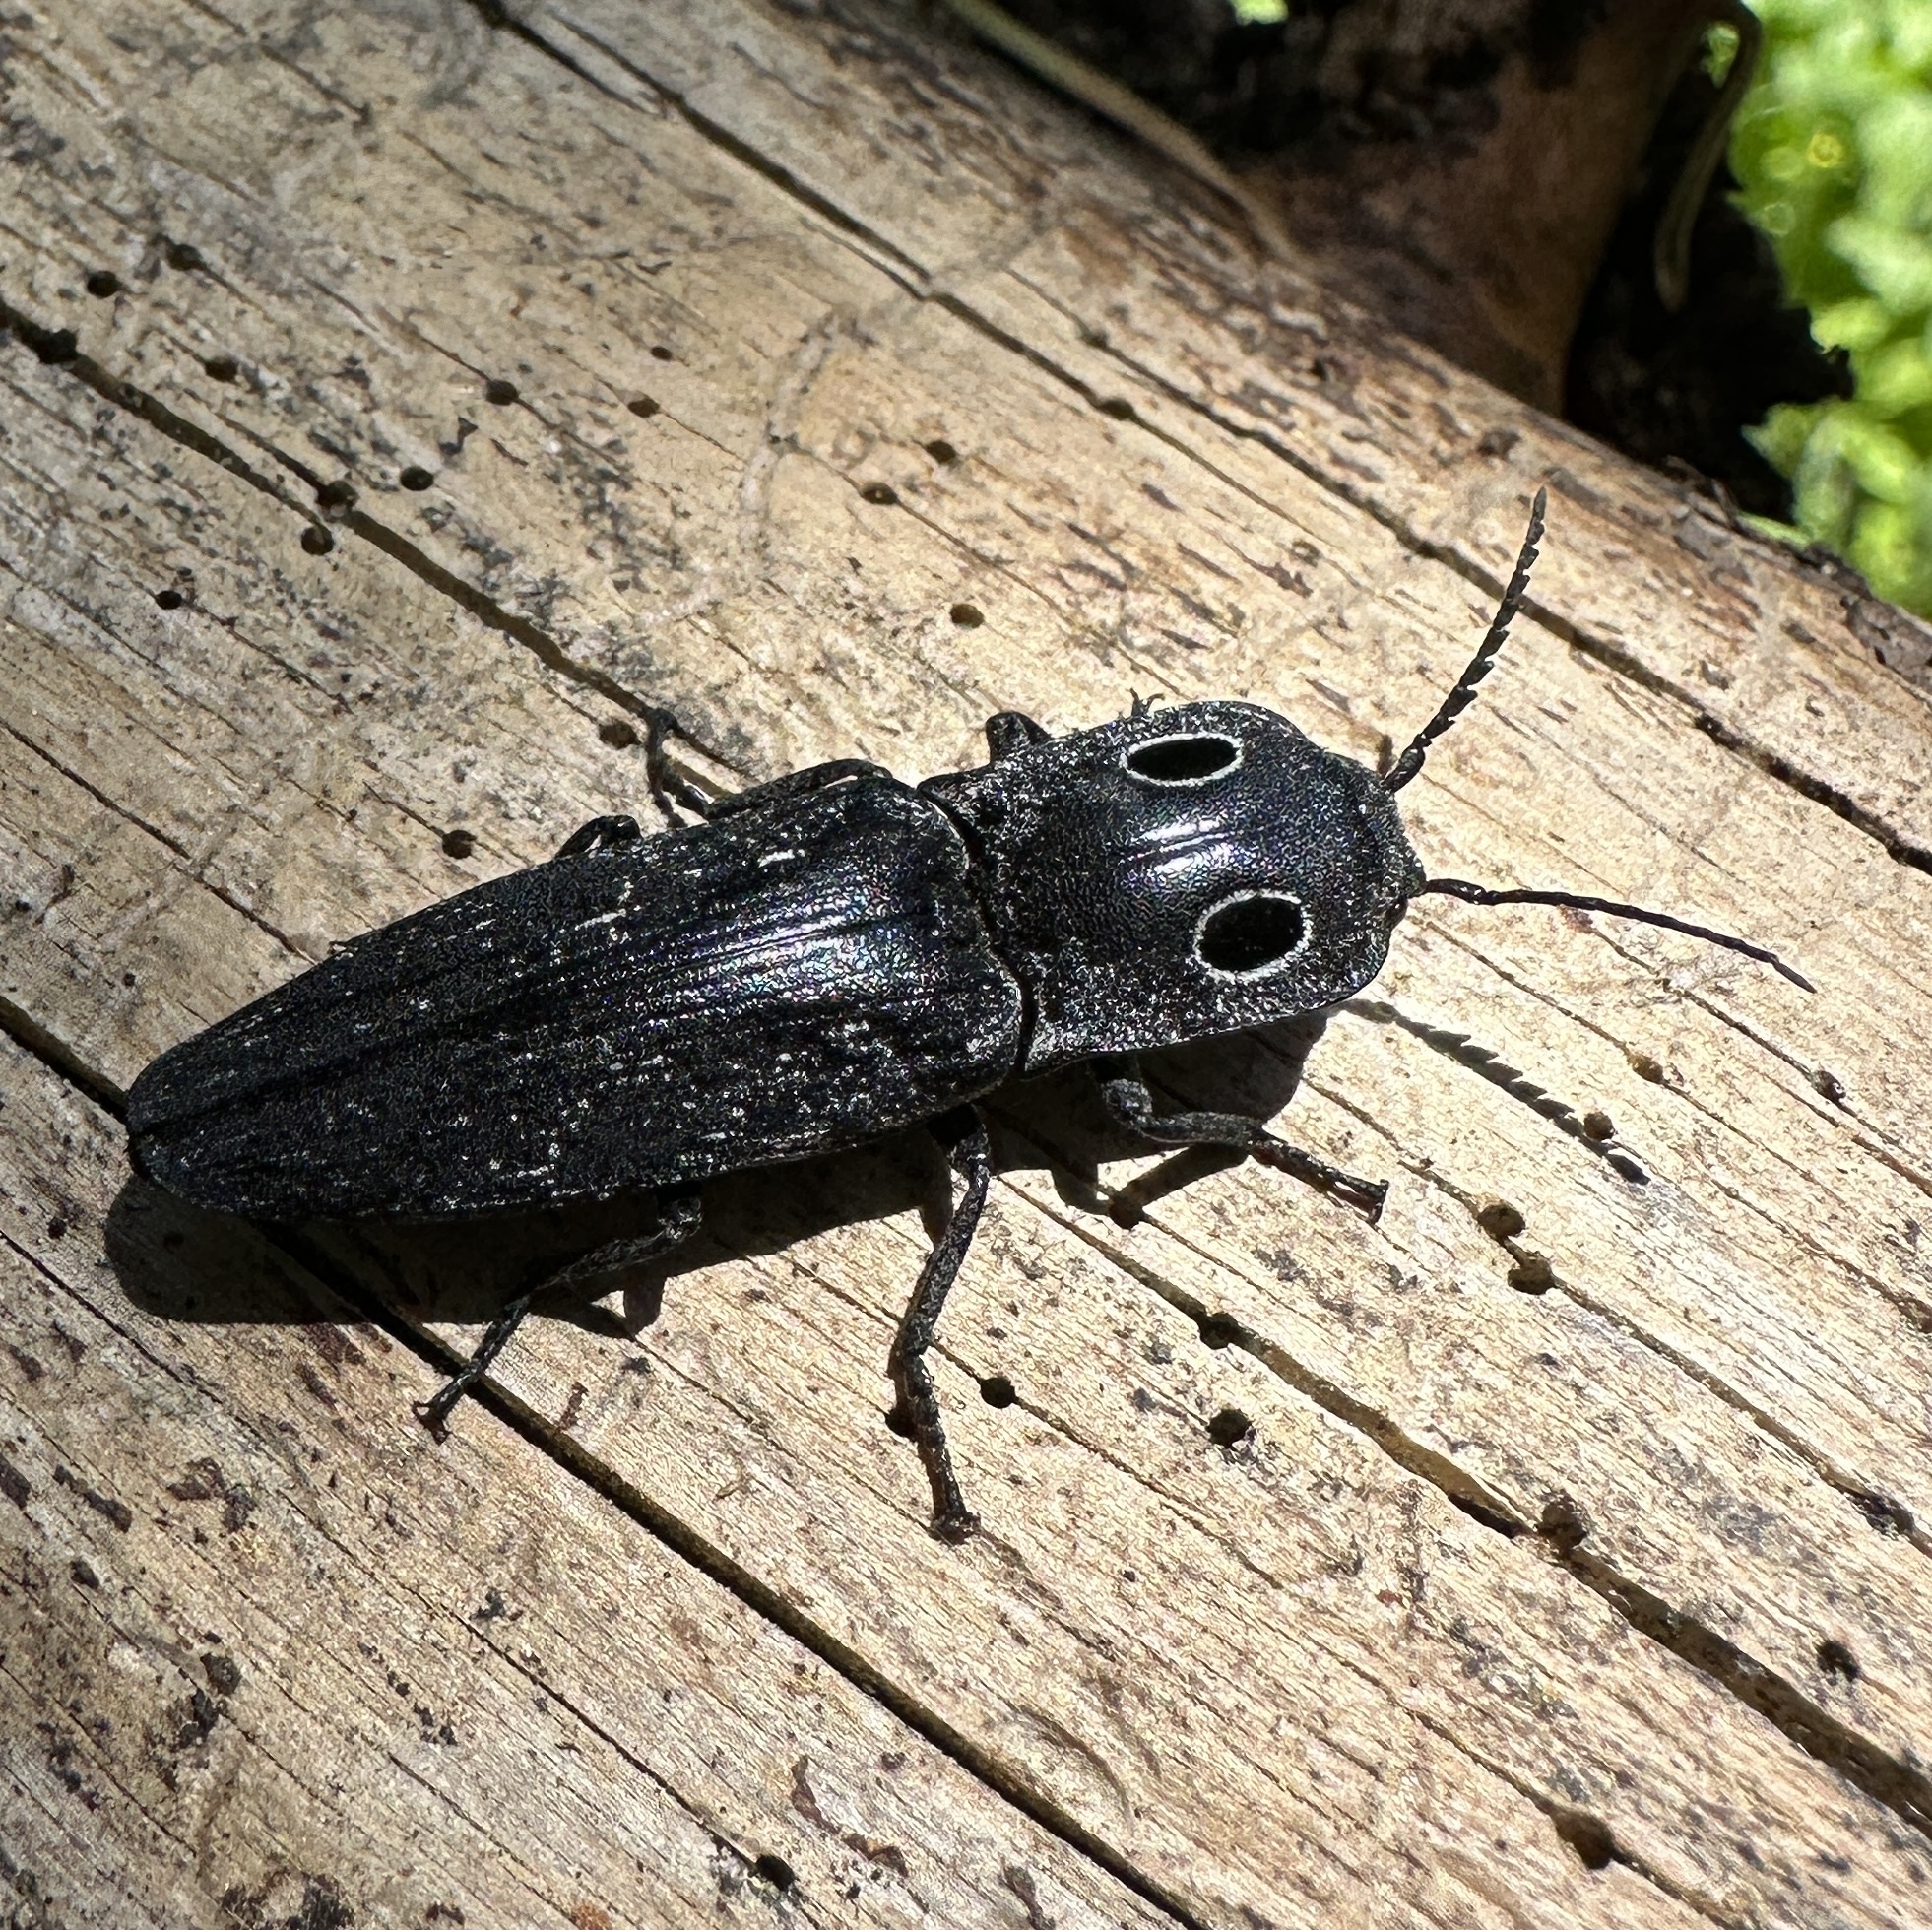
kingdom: Animalia
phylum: Arthropoda
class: Insecta
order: Coleoptera
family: Elateridae
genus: Alaus
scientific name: Alaus melanops
